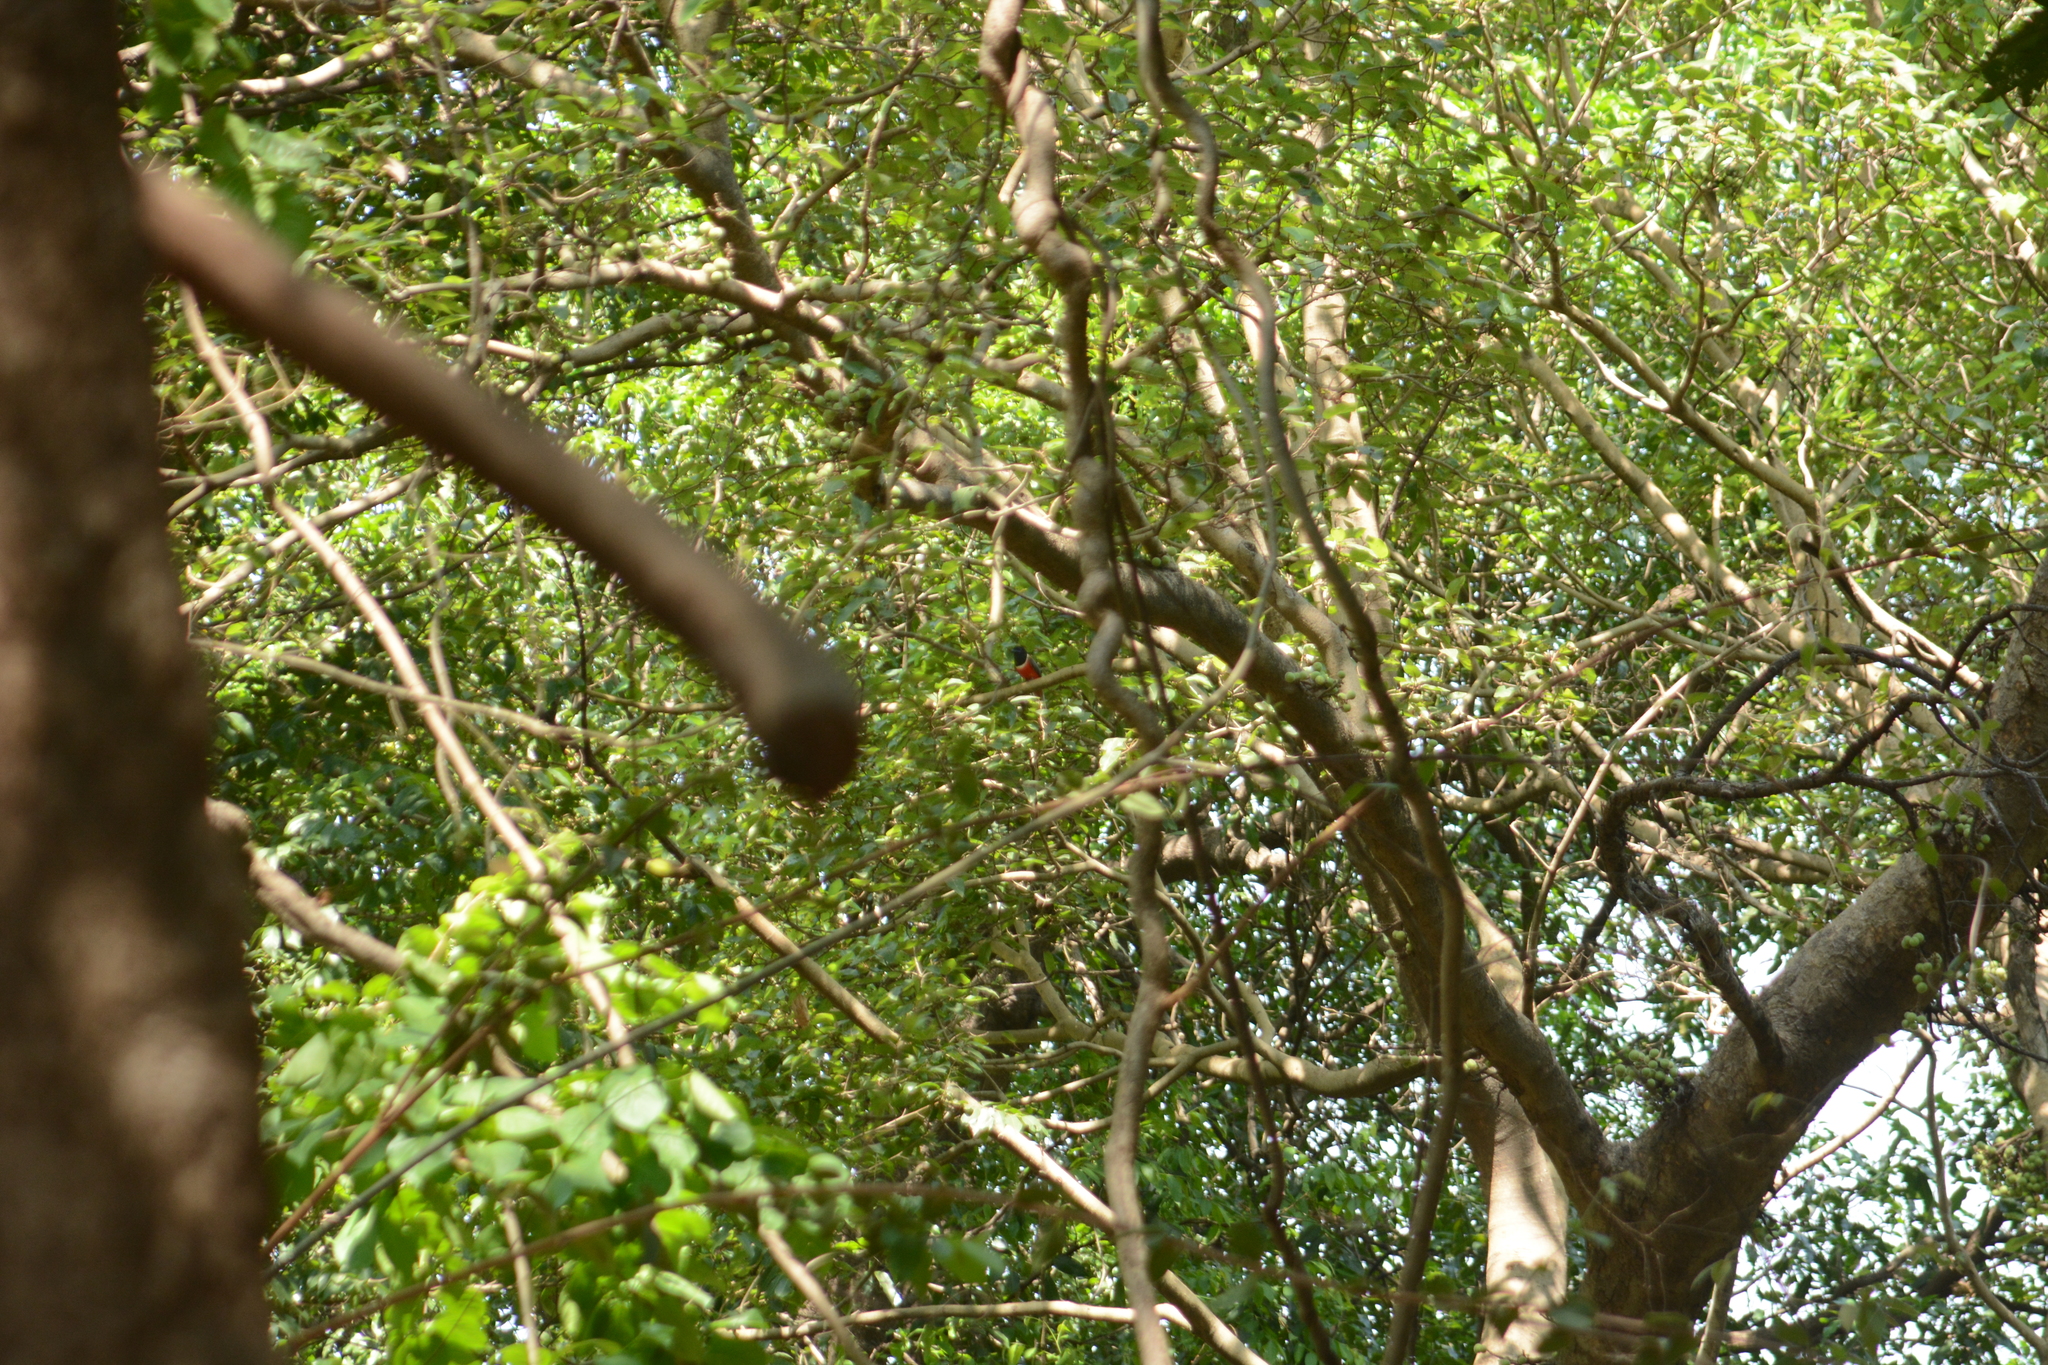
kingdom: Animalia
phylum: Chordata
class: Aves
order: Trogoniformes
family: Trogonidae
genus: Harpactes
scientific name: Harpactes fasciatus
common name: Malabar trogon
